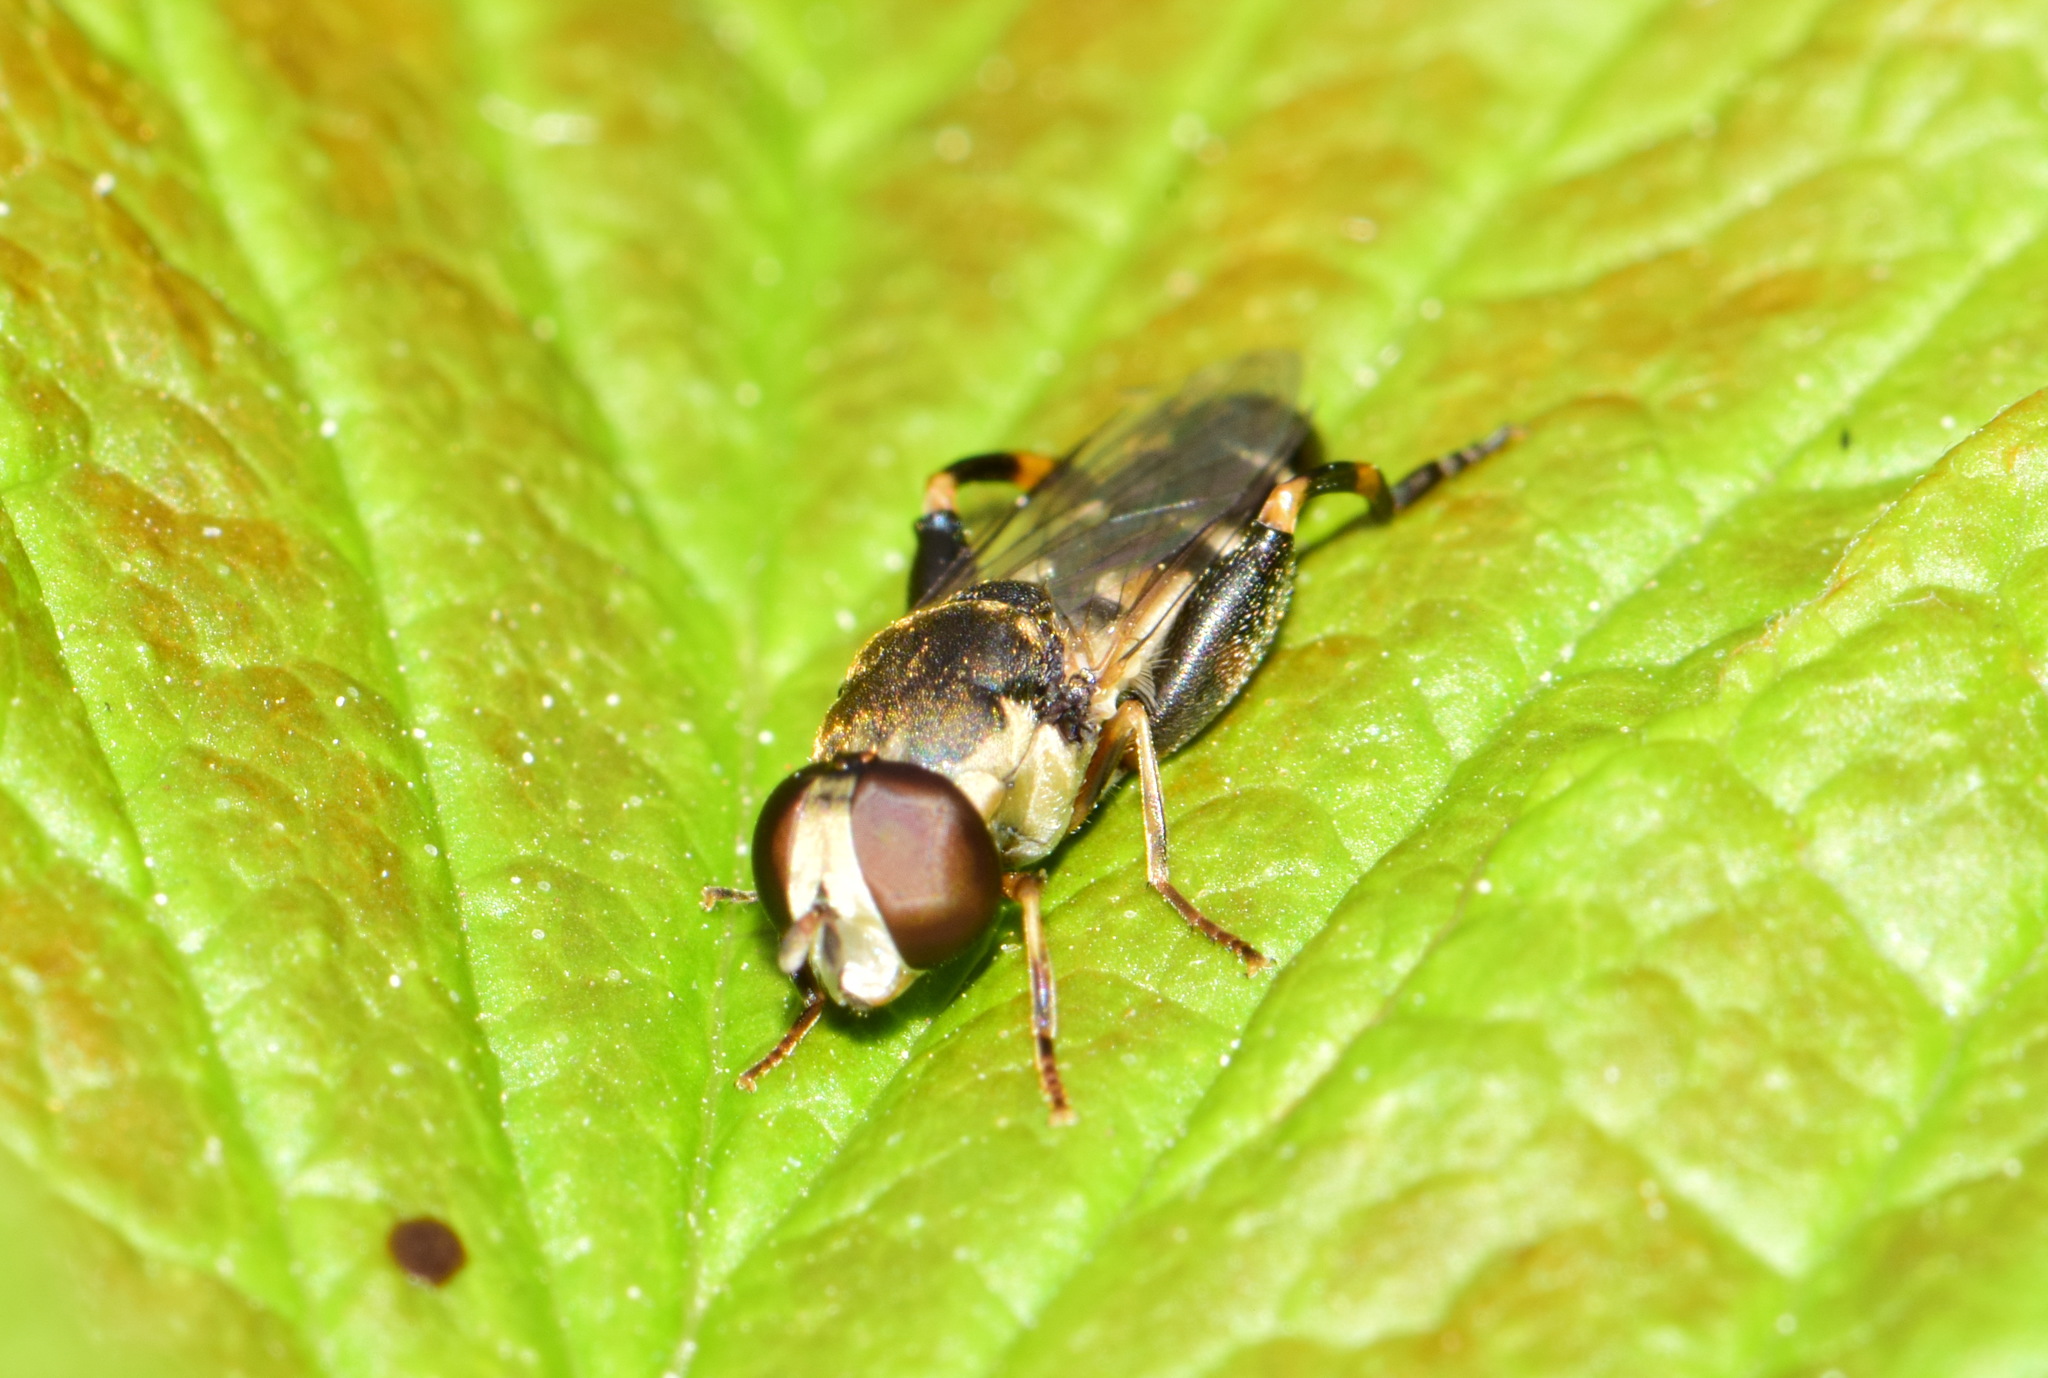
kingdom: Animalia
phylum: Arthropoda
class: Insecta
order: Diptera
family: Syrphidae
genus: Syritta
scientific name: Syritta pipiens
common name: Hover fly
